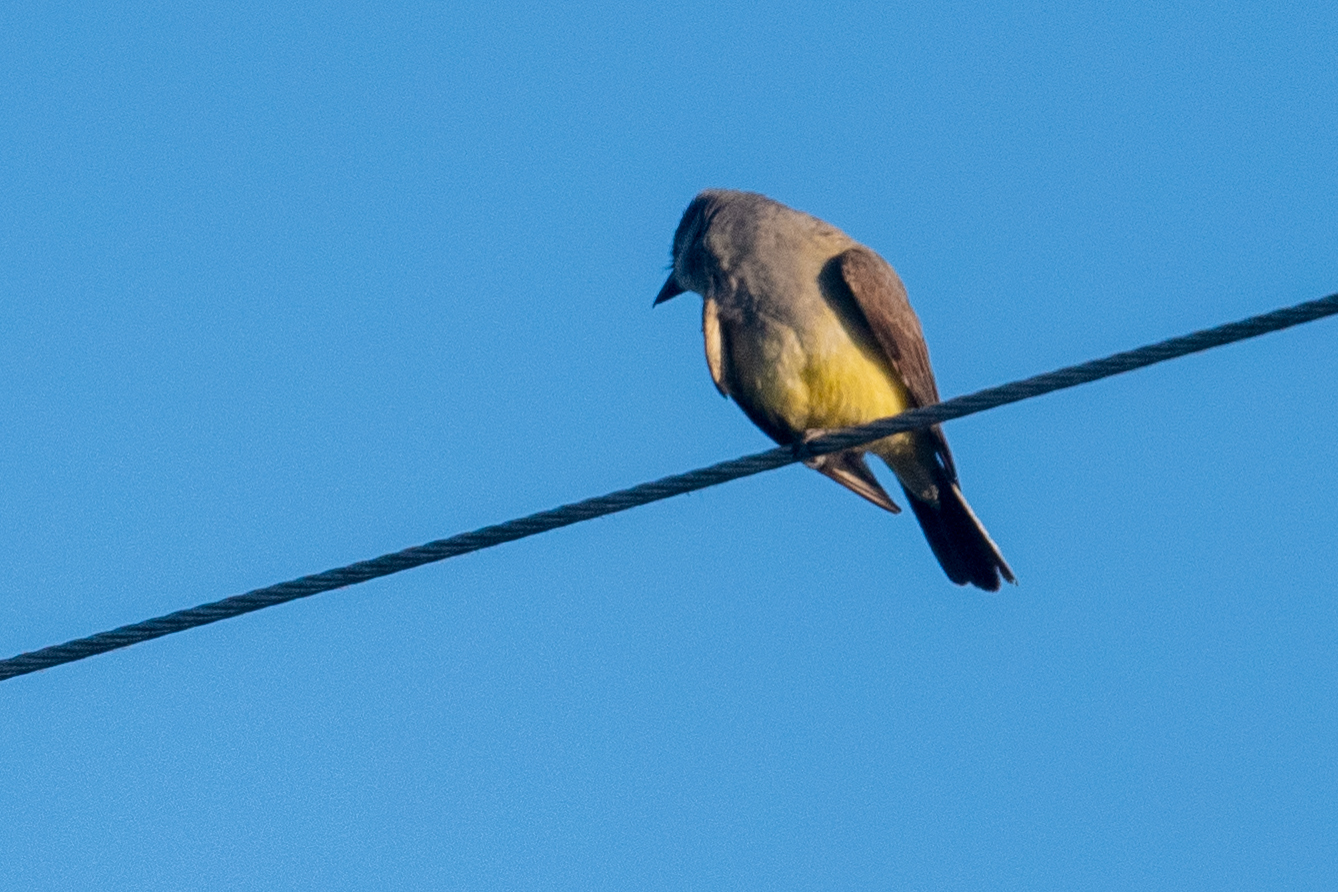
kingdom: Animalia
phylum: Chordata
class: Aves
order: Passeriformes
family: Tyrannidae
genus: Tyrannus
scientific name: Tyrannus verticalis
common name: Western kingbird
